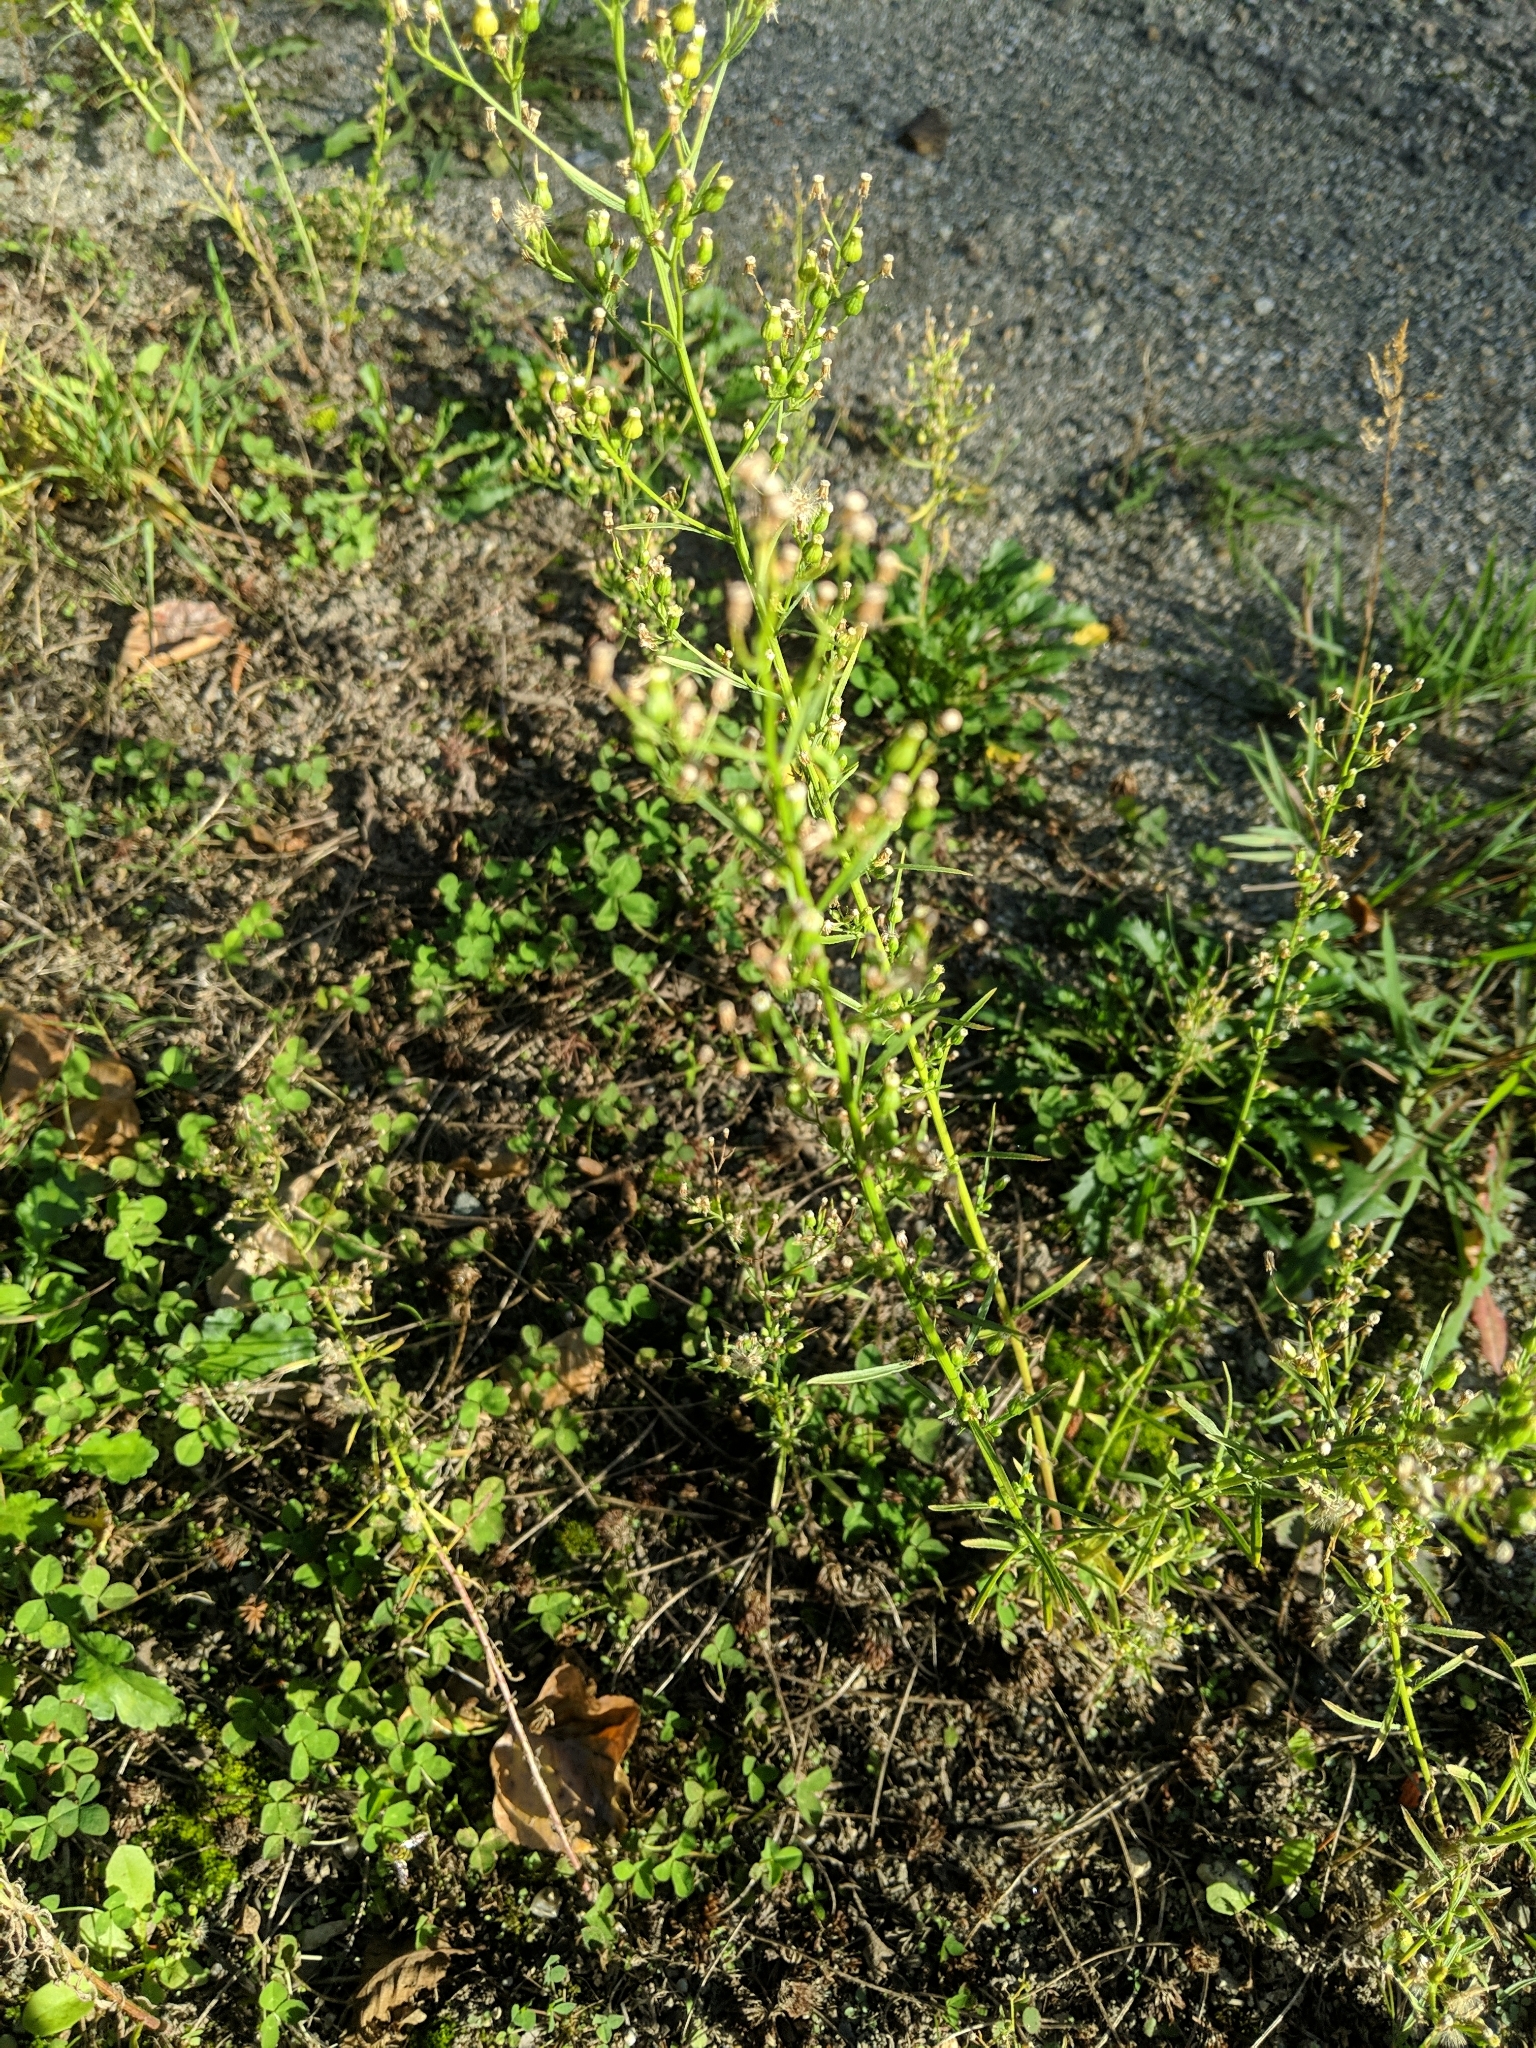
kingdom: Plantae
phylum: Tracheophyta
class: Magnoliopsida
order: Asterales
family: Asteraceae
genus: Erigeron
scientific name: Erigeron canadensis
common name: Canadian fleabane
